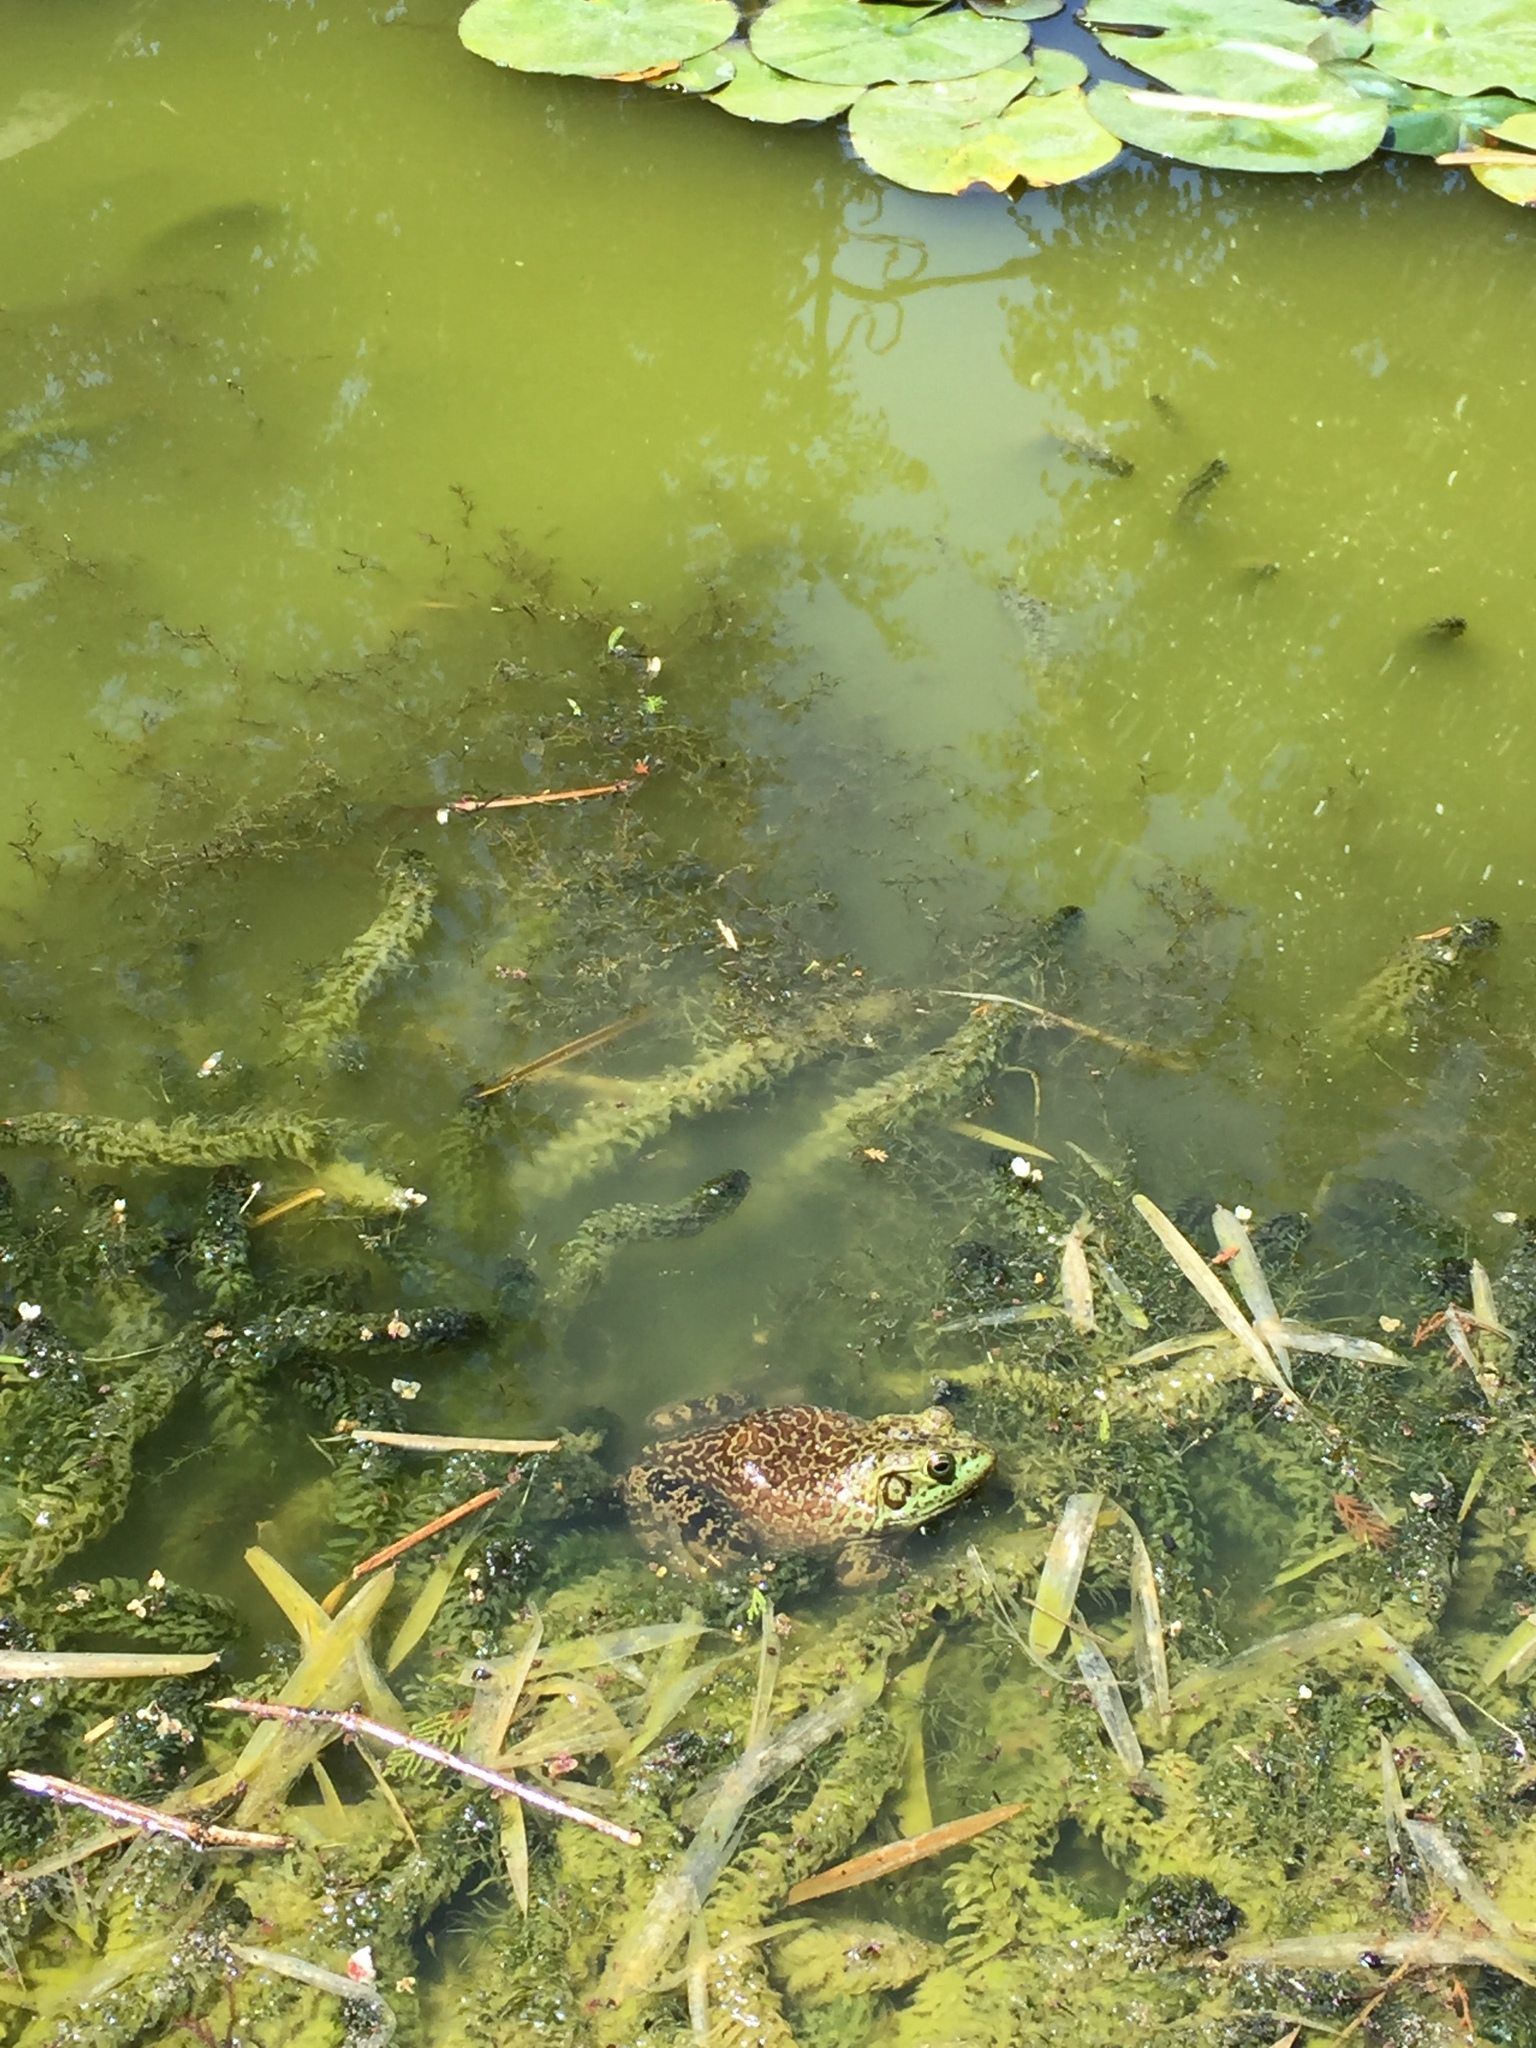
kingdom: Animalia
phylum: Chordata
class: Amphibia
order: Anura
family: Ranidae
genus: Lithobates
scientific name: Lithobates catesbeianus
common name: American bullfrog
